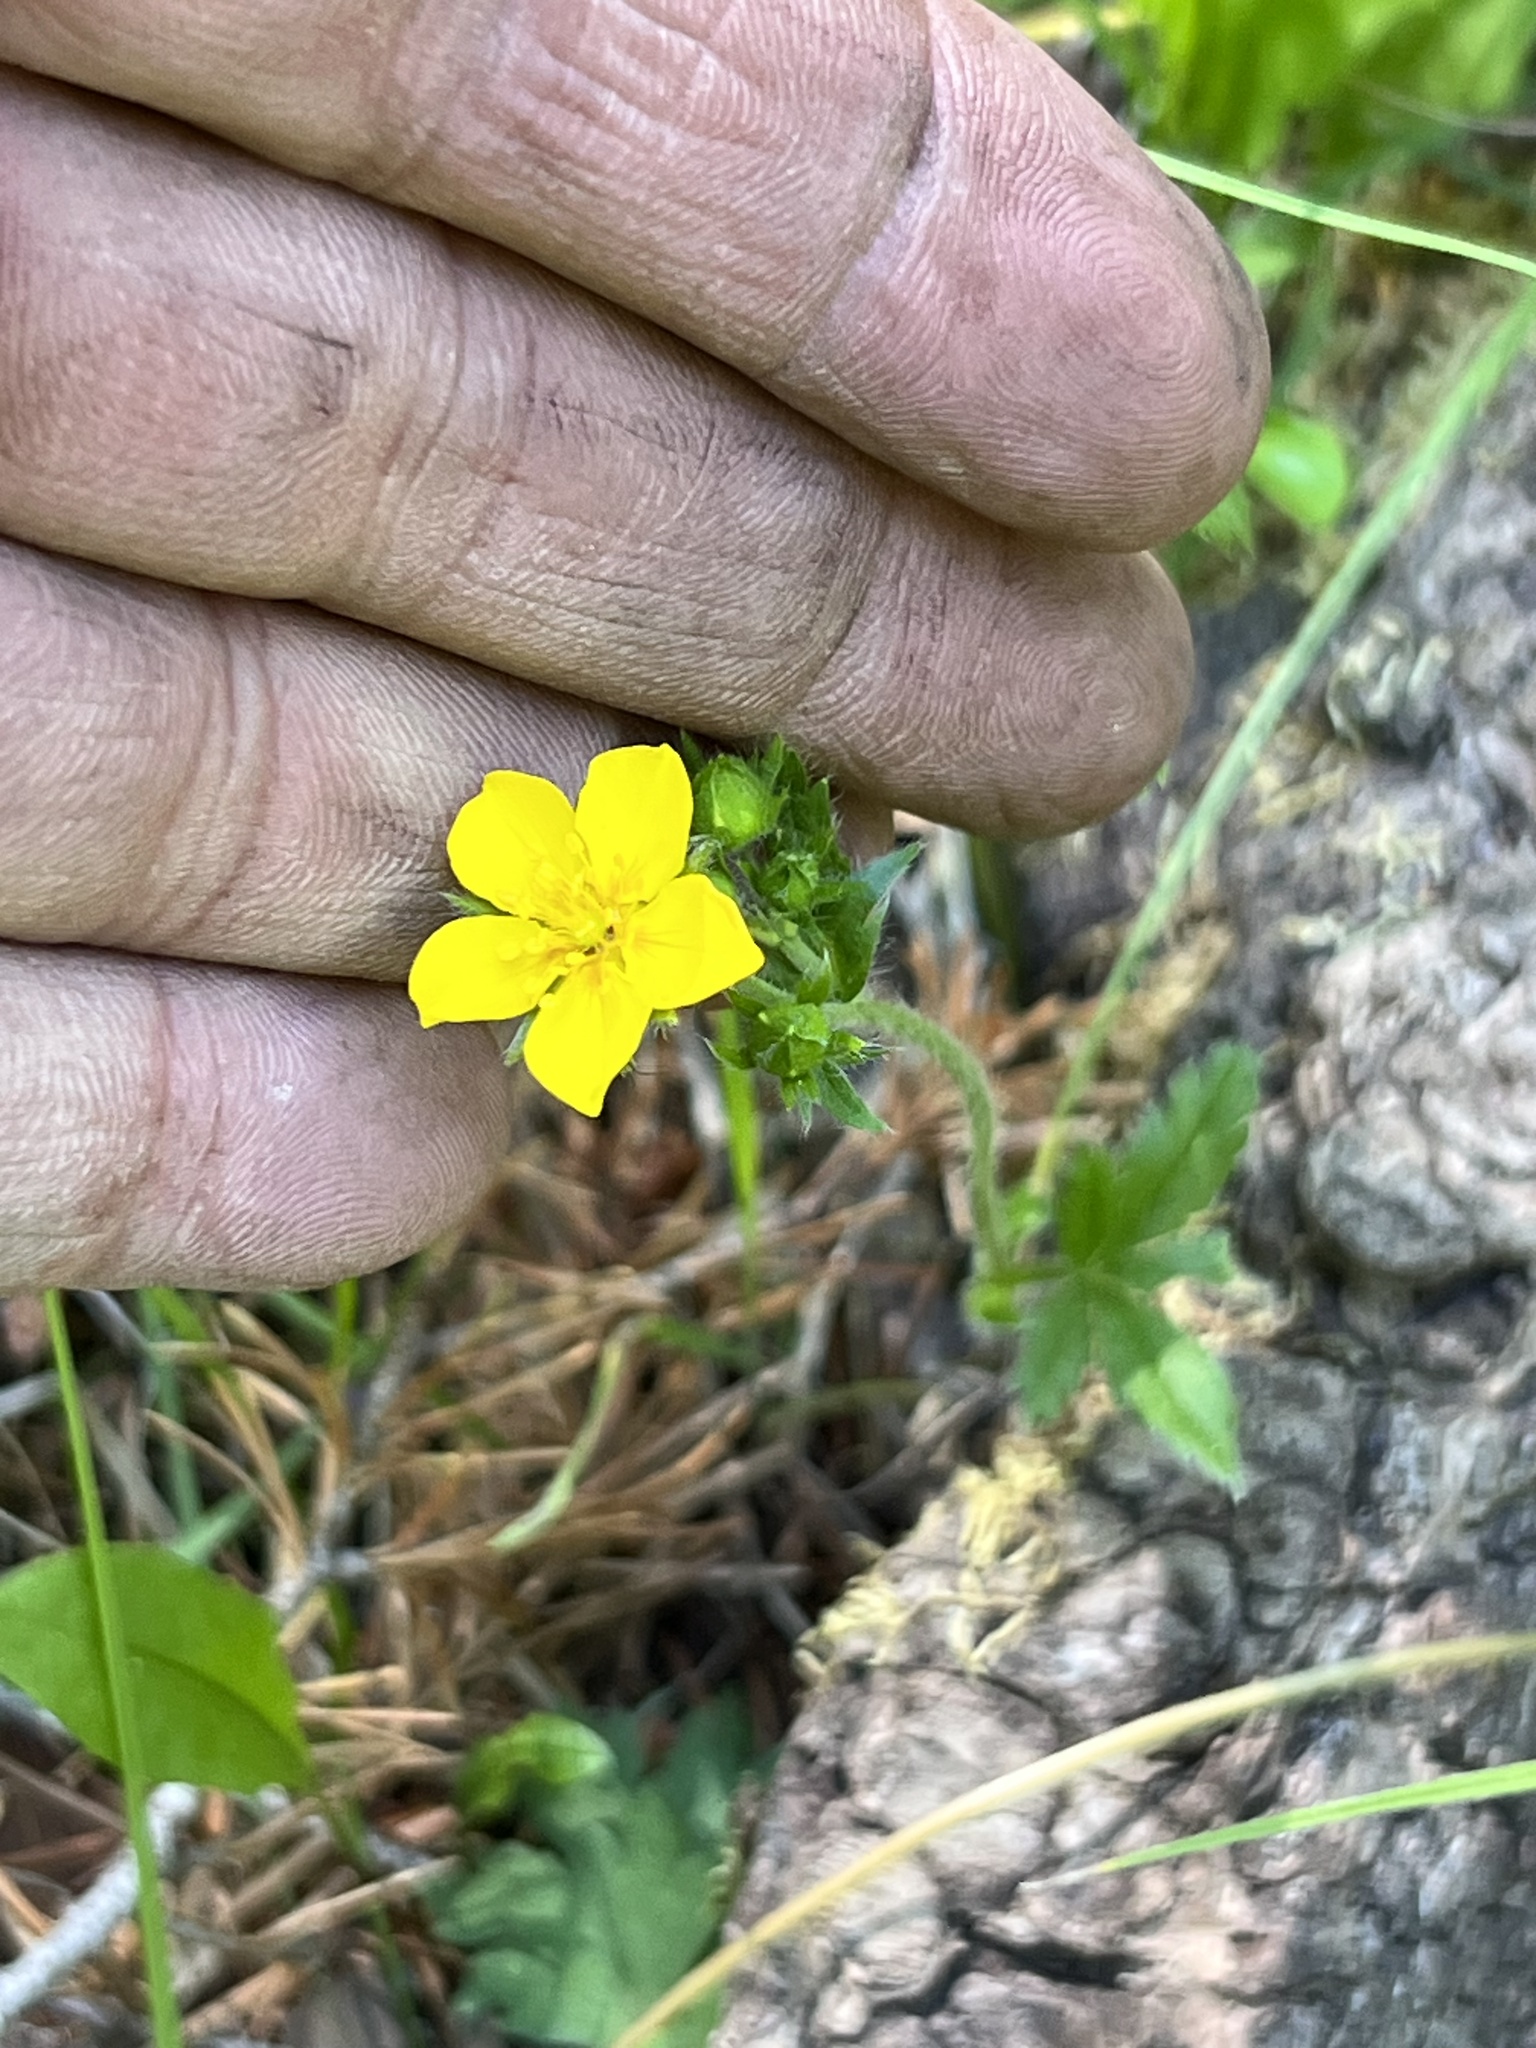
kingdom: Plantae
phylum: Tracheophyta
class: Magnoliopsida
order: Rosales
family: Rosaceae
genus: Potentilla
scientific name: Potentilla gracilis
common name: Graceful cinquefoil
